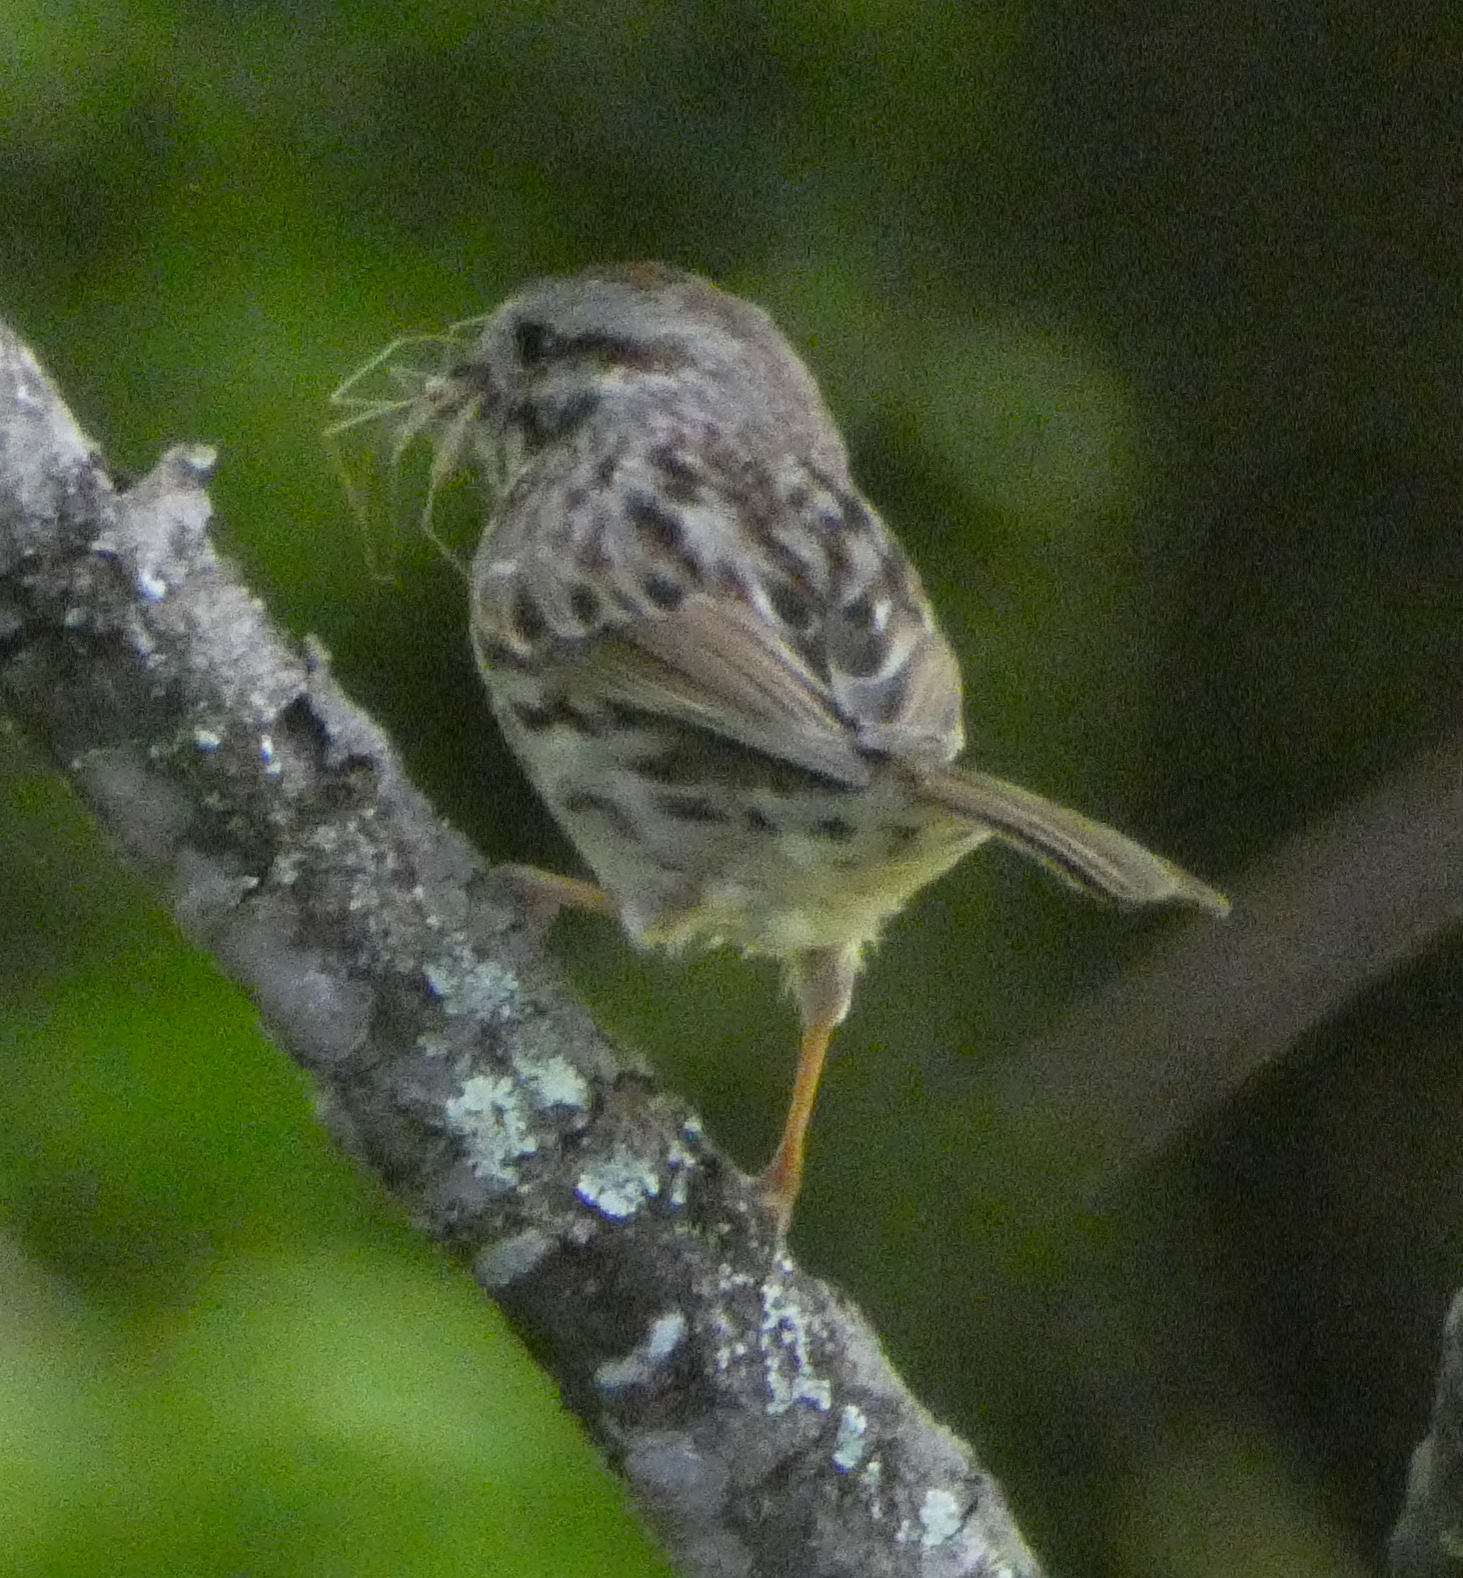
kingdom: Animalia
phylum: Chordata
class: Aves
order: Passeriformes
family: Passerellidae
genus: Melospiza
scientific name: Melospiza melodia
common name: Song sparrow
